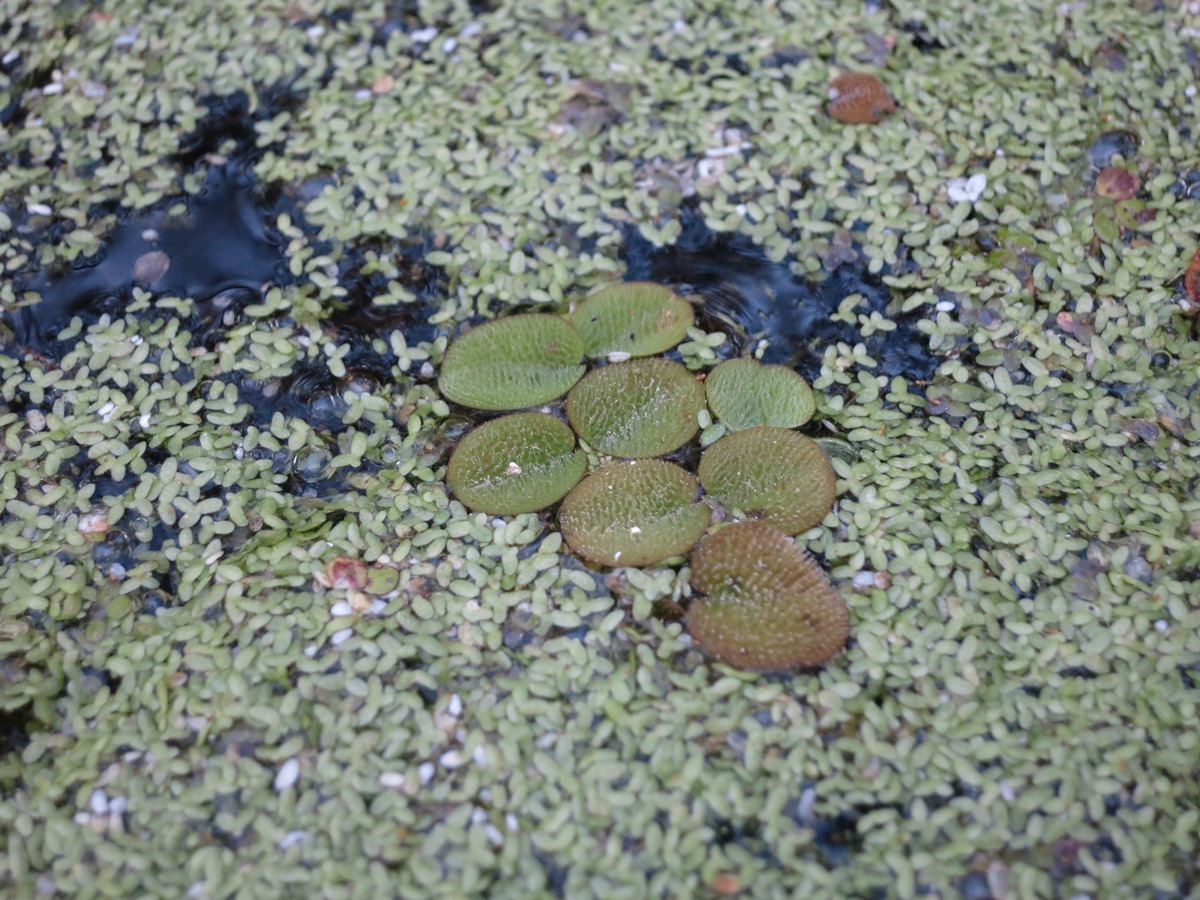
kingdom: Plantae
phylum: Tracheophyta
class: Polypodiopsida
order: Salviniales
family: Salviniaceae
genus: Salvinia
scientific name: Salvinia minima
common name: Water spangles
